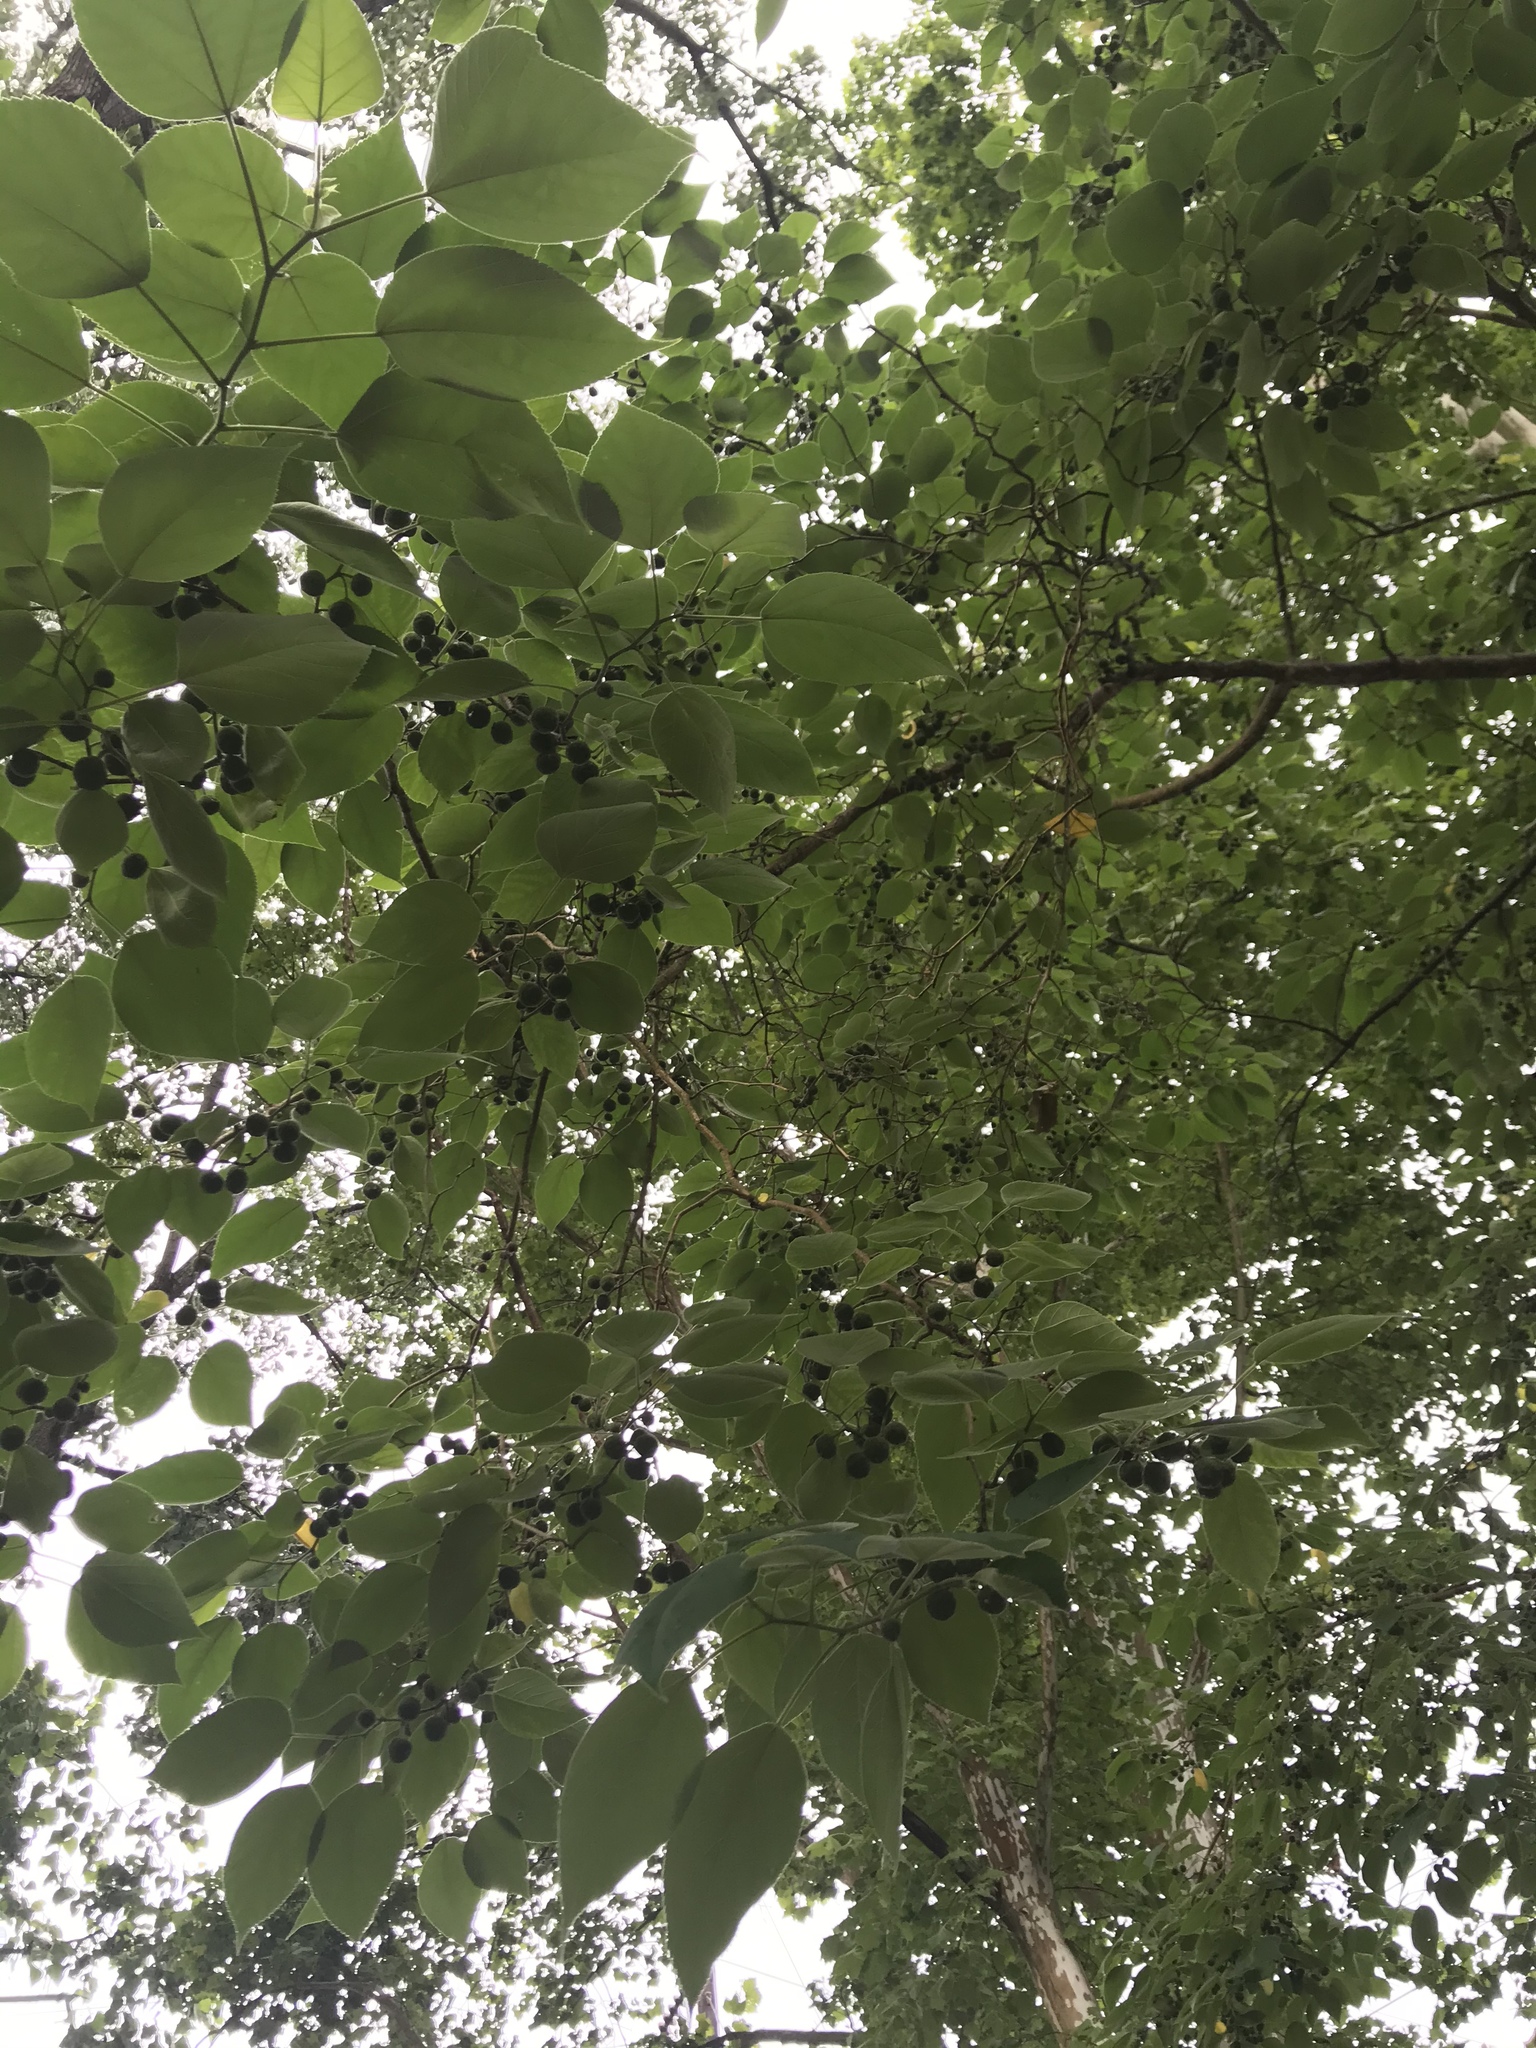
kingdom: Plantae
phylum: Tracheophyta
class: Magnoliopsida
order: Rosales
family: Moraceae
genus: Broussonetia
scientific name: Broussonetia papyrifera
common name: Paper mulberry
